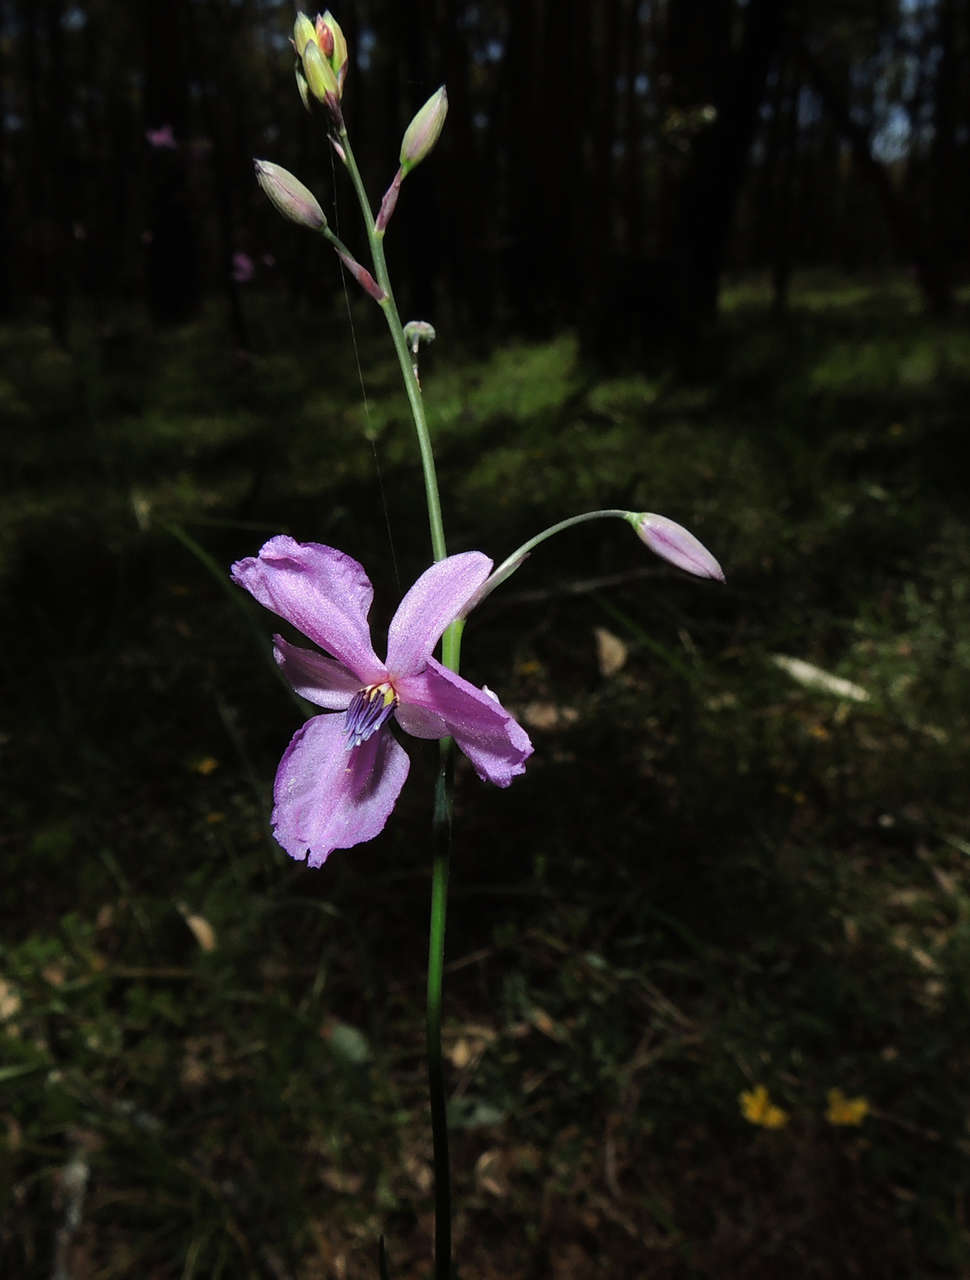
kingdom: Plantae
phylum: Tracheophyta
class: Liliopsida
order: Asparagales
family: Asparagaceae
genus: Arthropodium
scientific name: Arthropodium strictum
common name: Chocolate-lily
